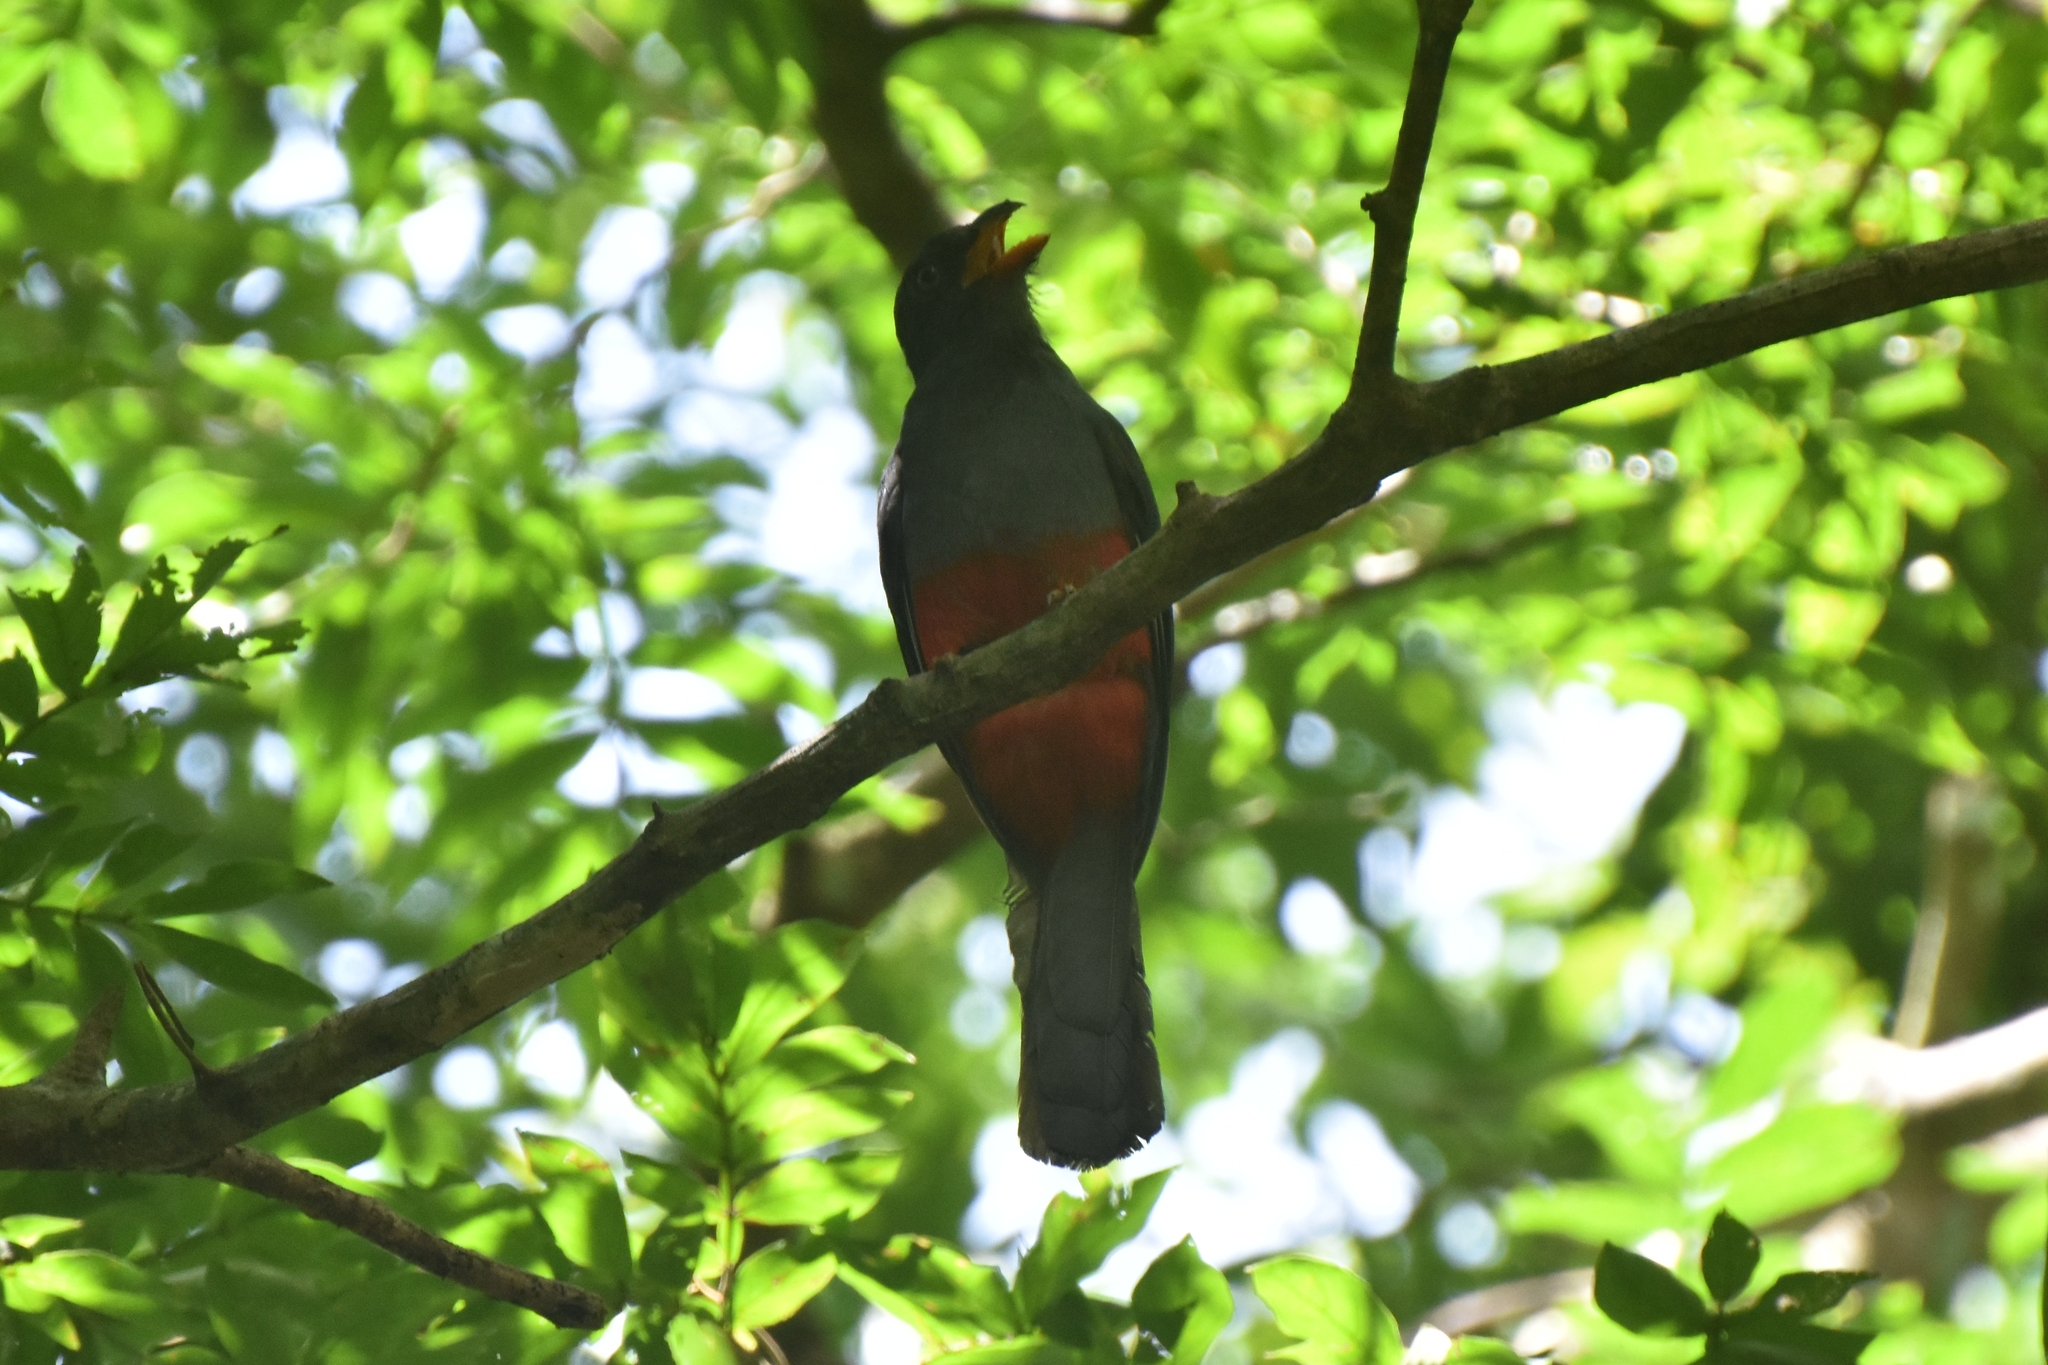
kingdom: Animalia
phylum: Chordata
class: Aves
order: Trogoniformes
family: Trogonidae
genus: Trogon
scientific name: Trogon massena
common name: Slaty-tailed trogon
